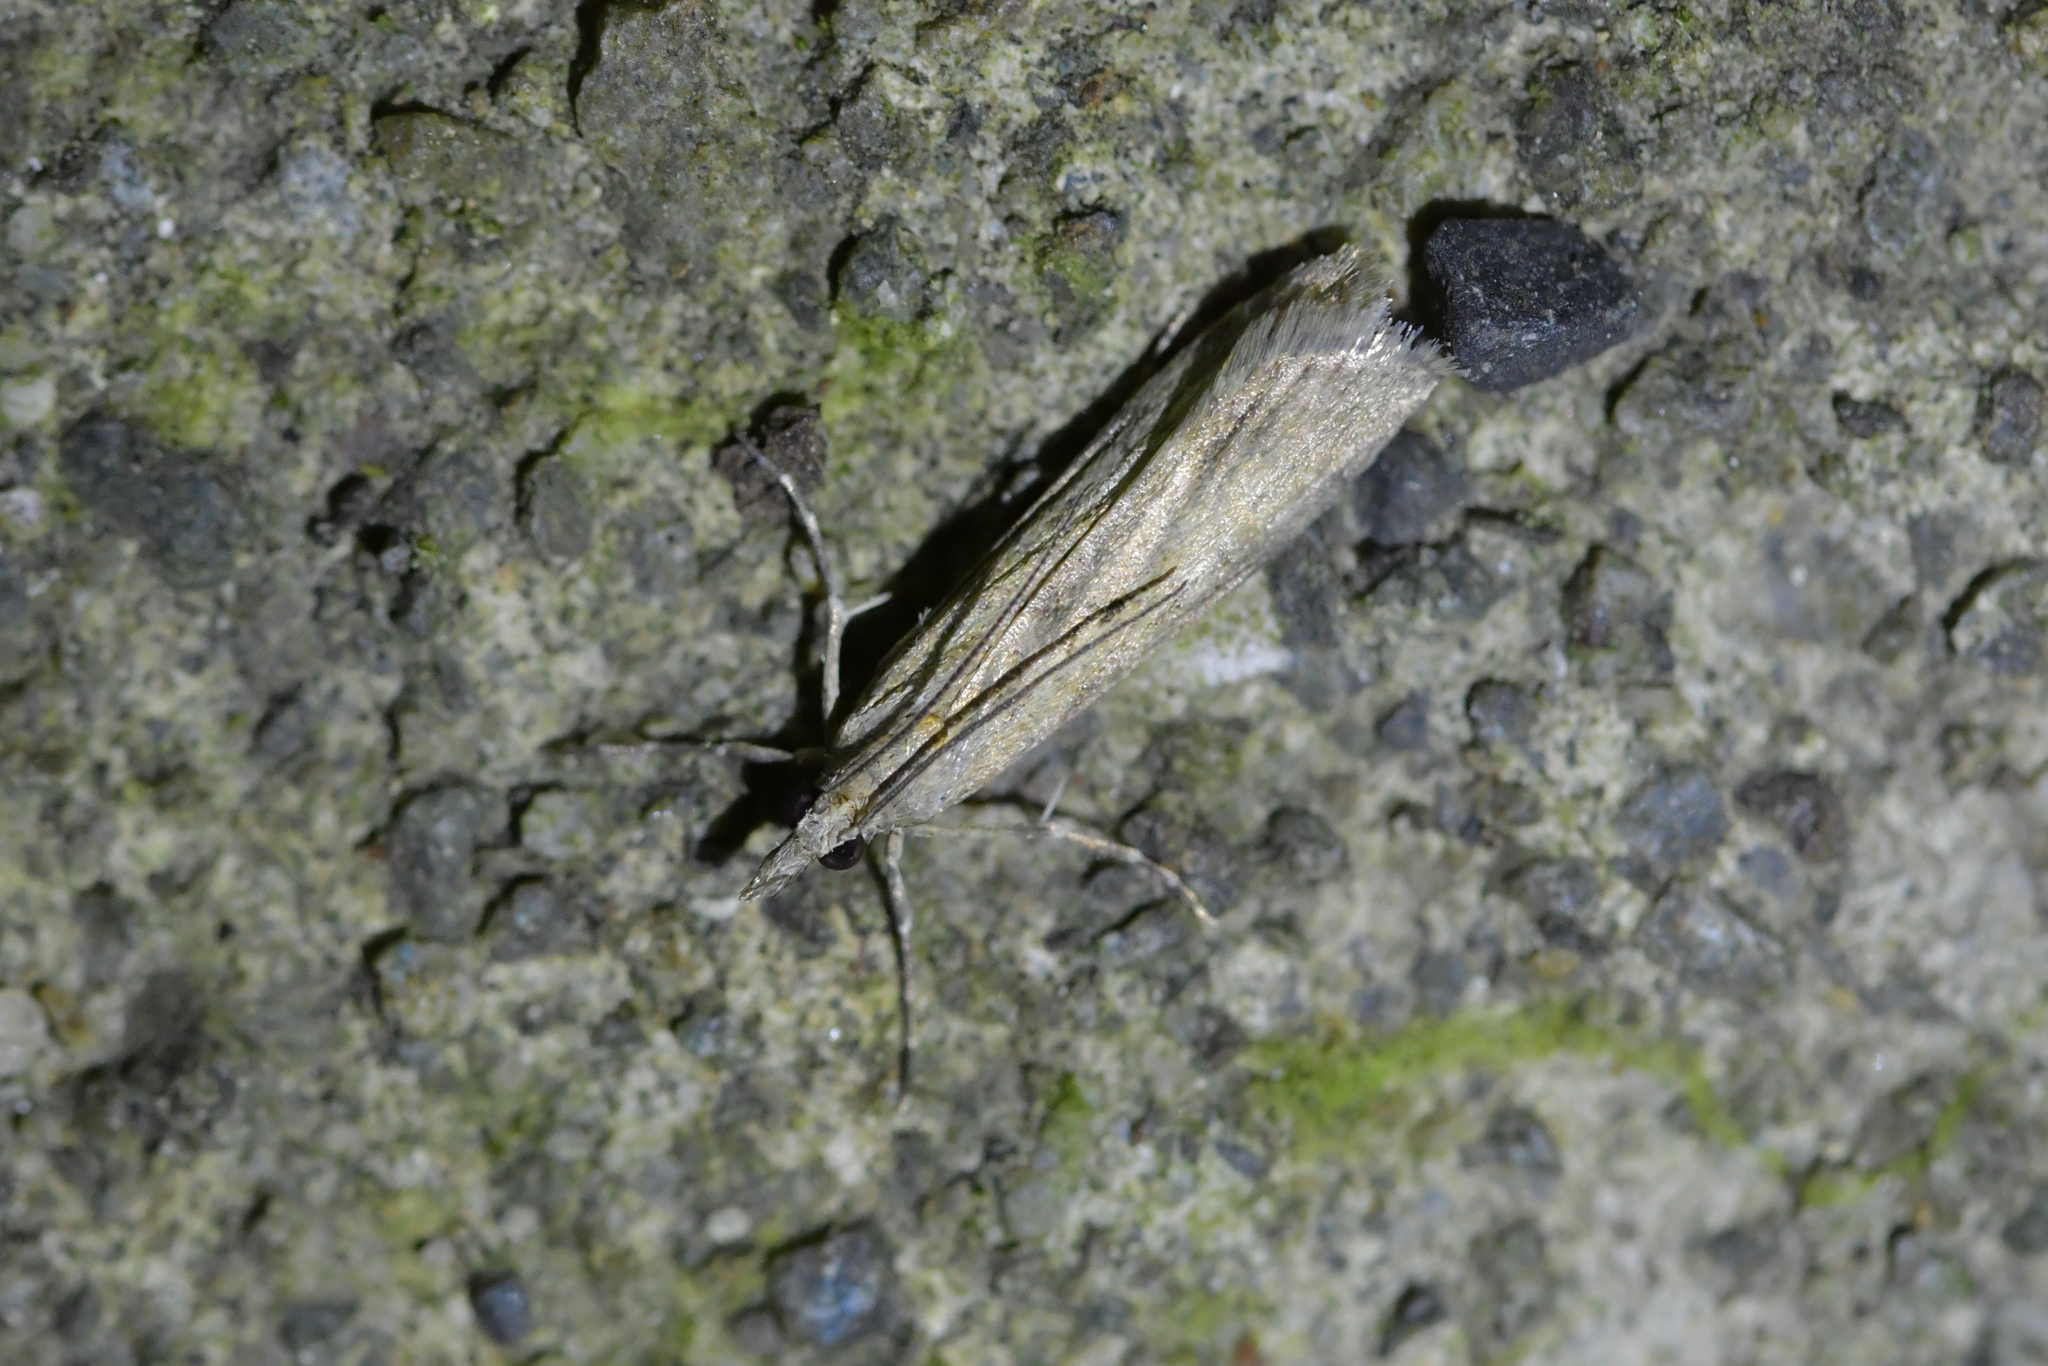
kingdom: Animalia
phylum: Arthropoda
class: Insecta
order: Lepidoptera
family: Crambidae
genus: Eudonia
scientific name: Eudonia leptalea
